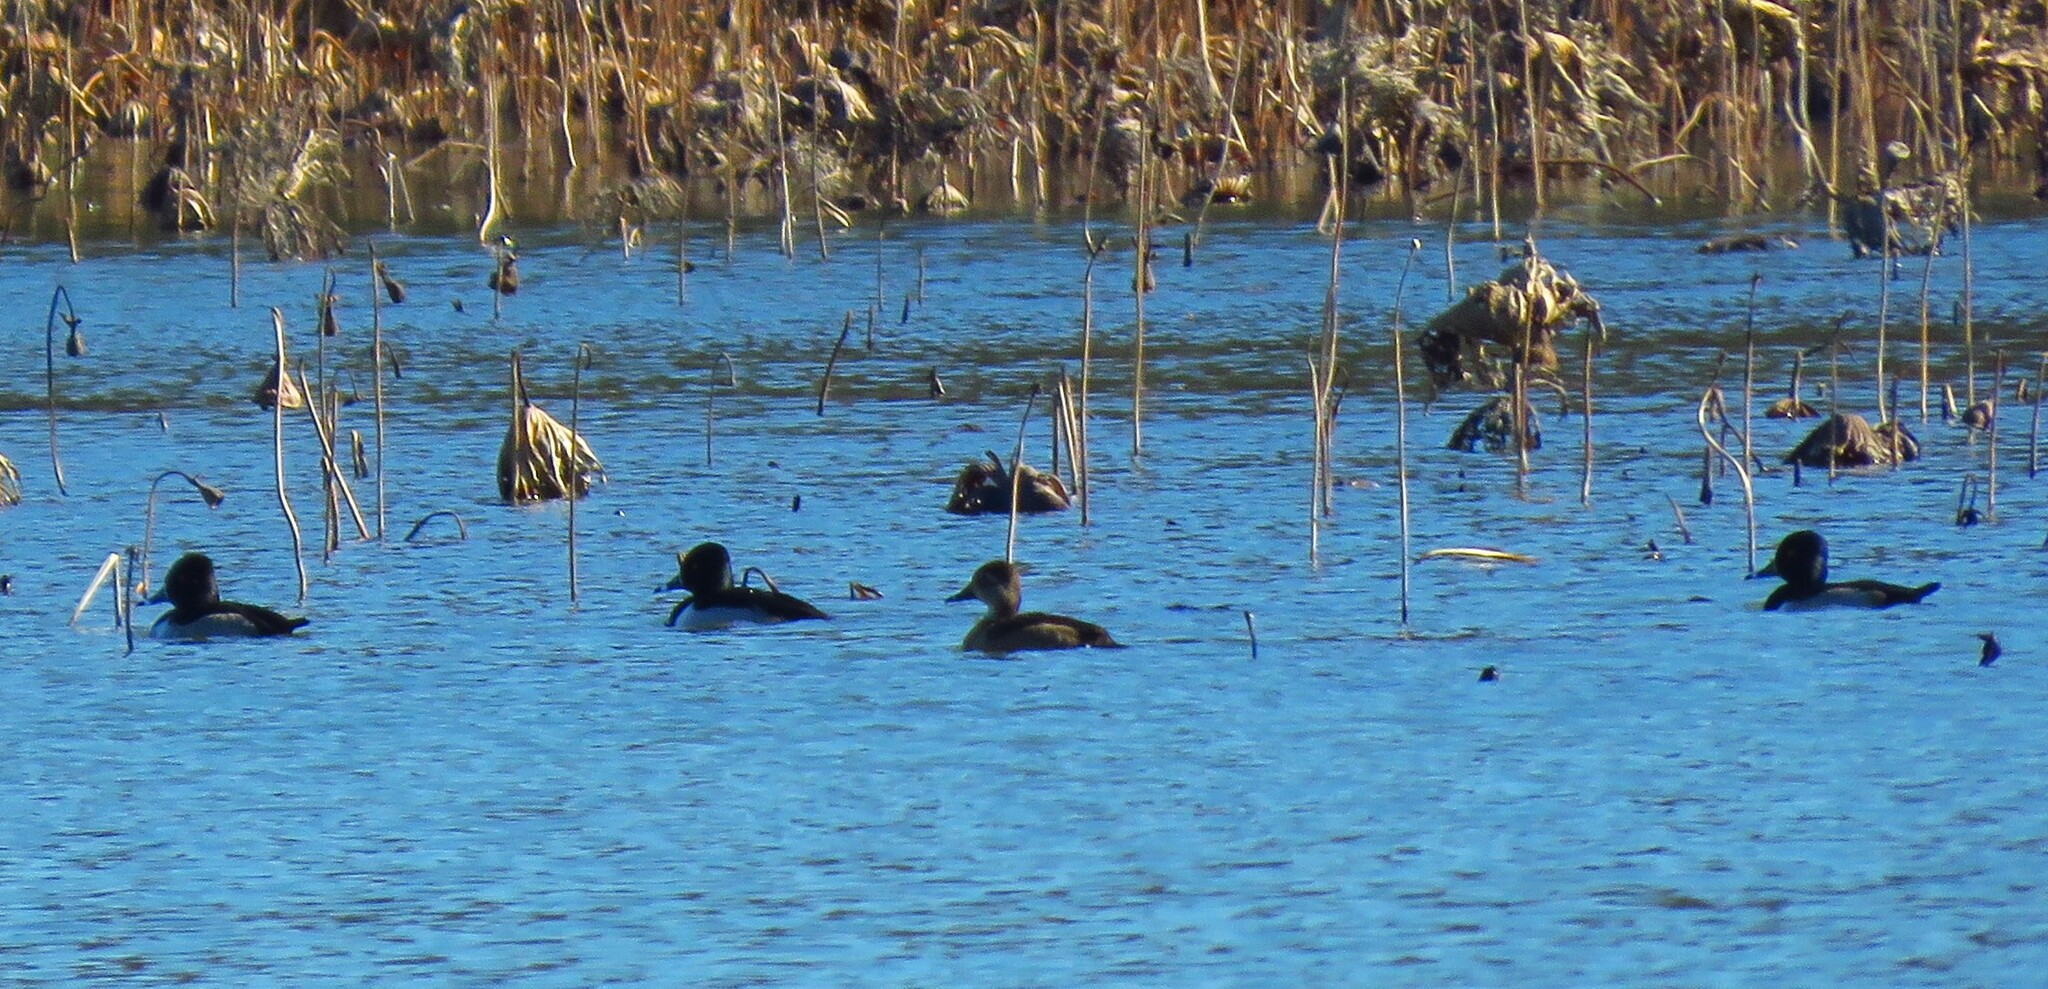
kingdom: Animalia
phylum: Chordata
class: Aves
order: Anseriformes
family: Anatidae
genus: Aythya
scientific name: Aythya collaris
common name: Ring-necked duck
